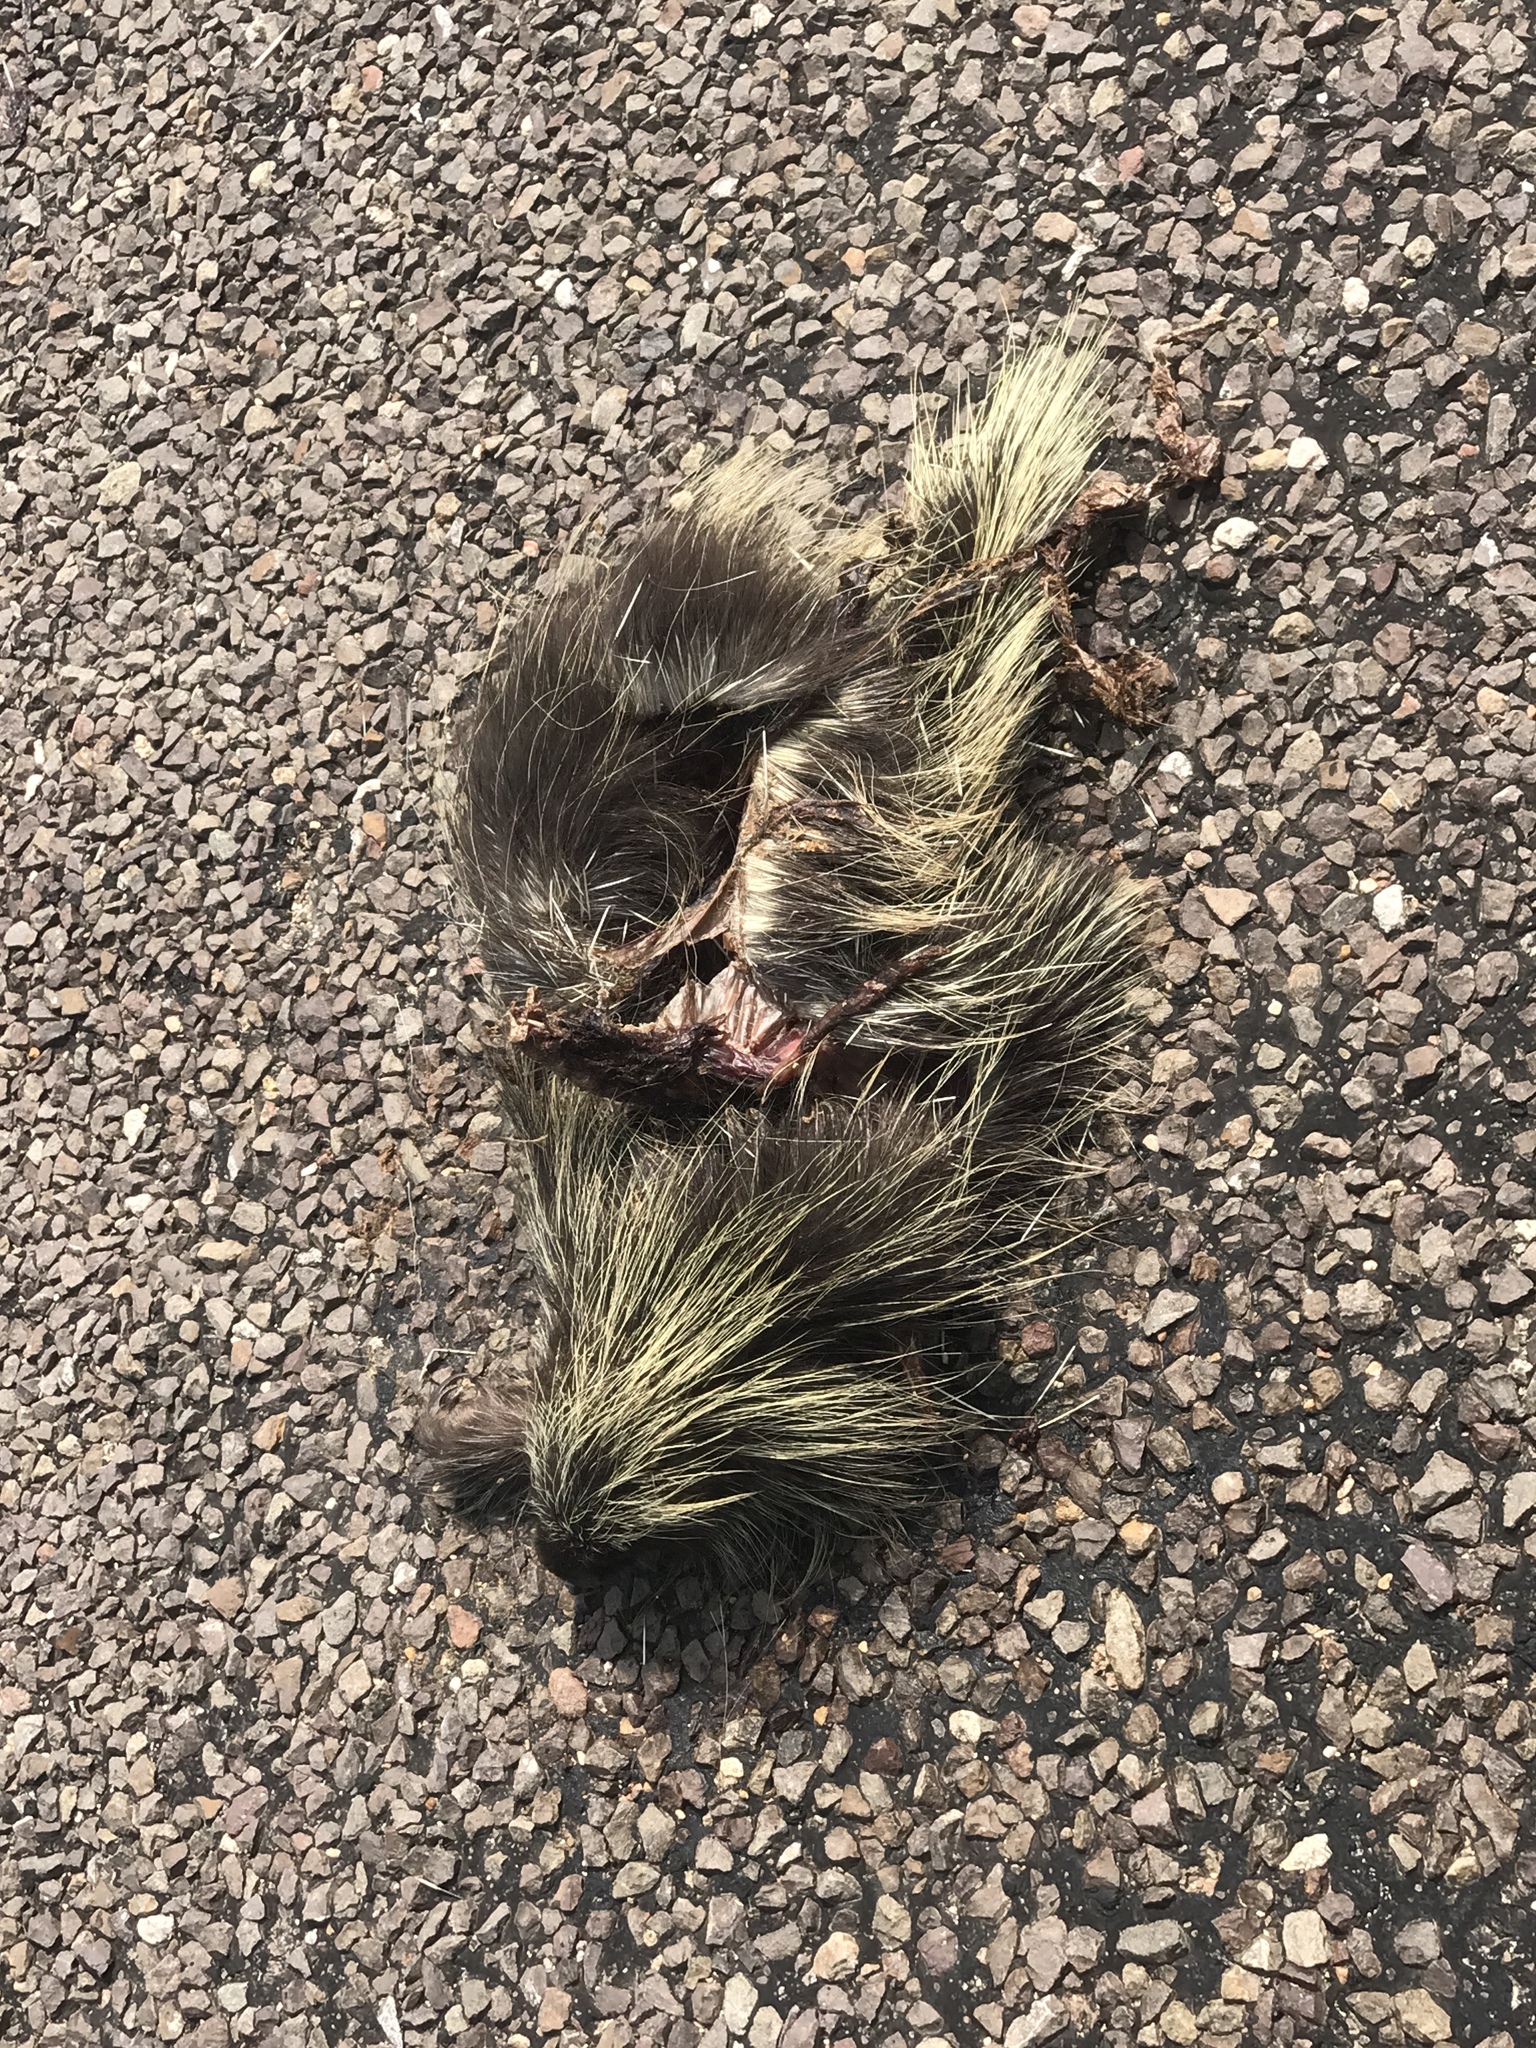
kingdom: Animalia
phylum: Chordata
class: Mammalia
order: Rodentia
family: Erethizontidae
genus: Erethizon
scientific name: Erethizon dorsatus
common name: North american porcupine
